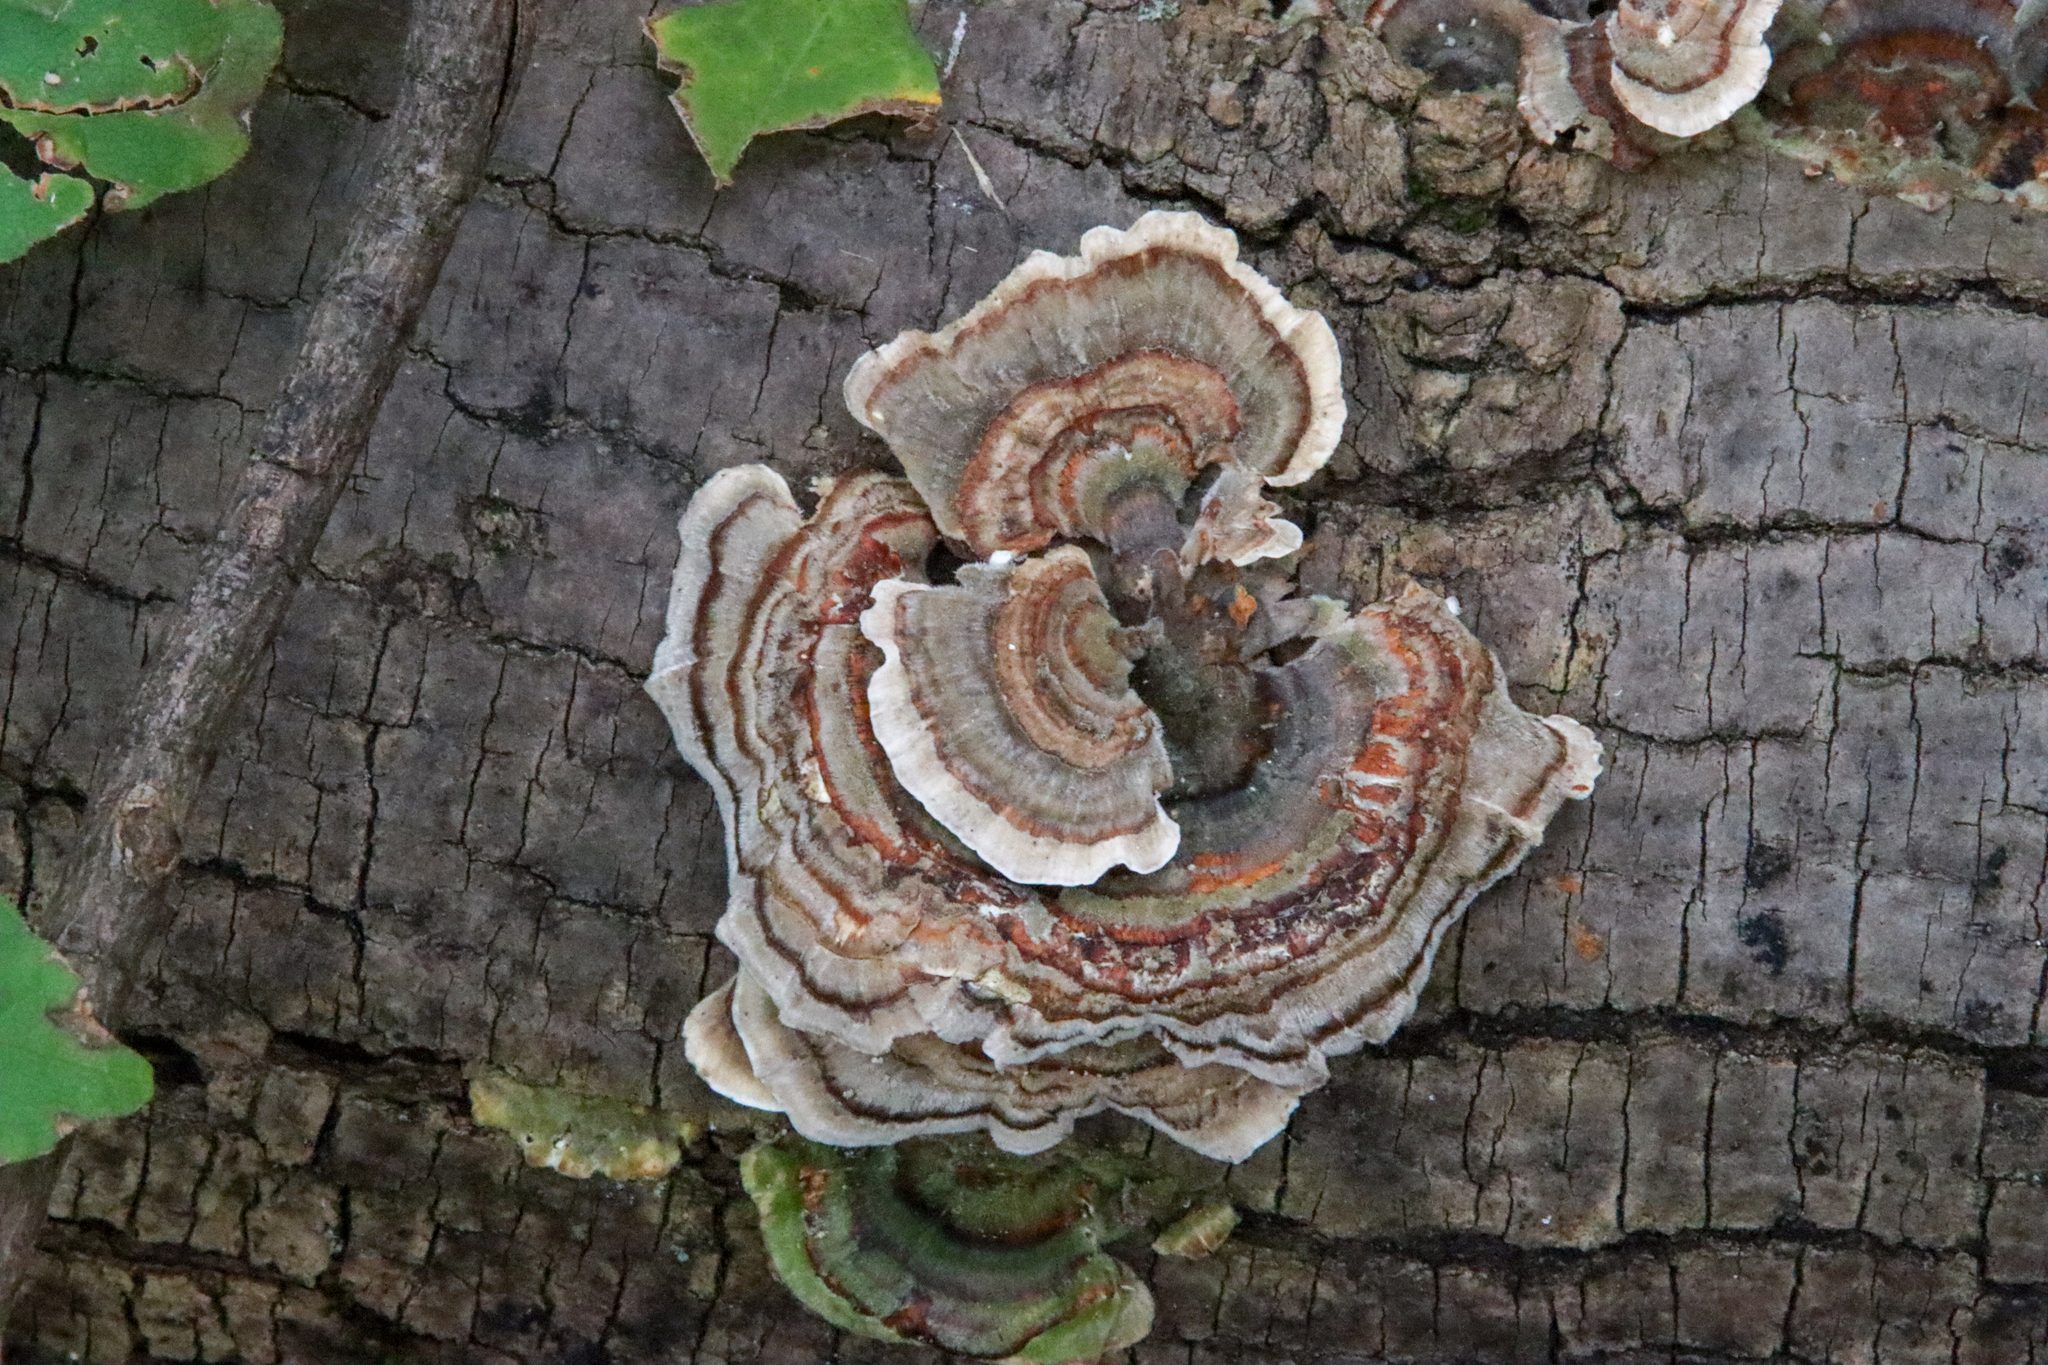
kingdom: Fungi
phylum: Basidiomycota
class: Agaricomycetes
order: Polyporales
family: Polyporaceae
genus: Trametes
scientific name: Trametes versicolor
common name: Turkeytail
